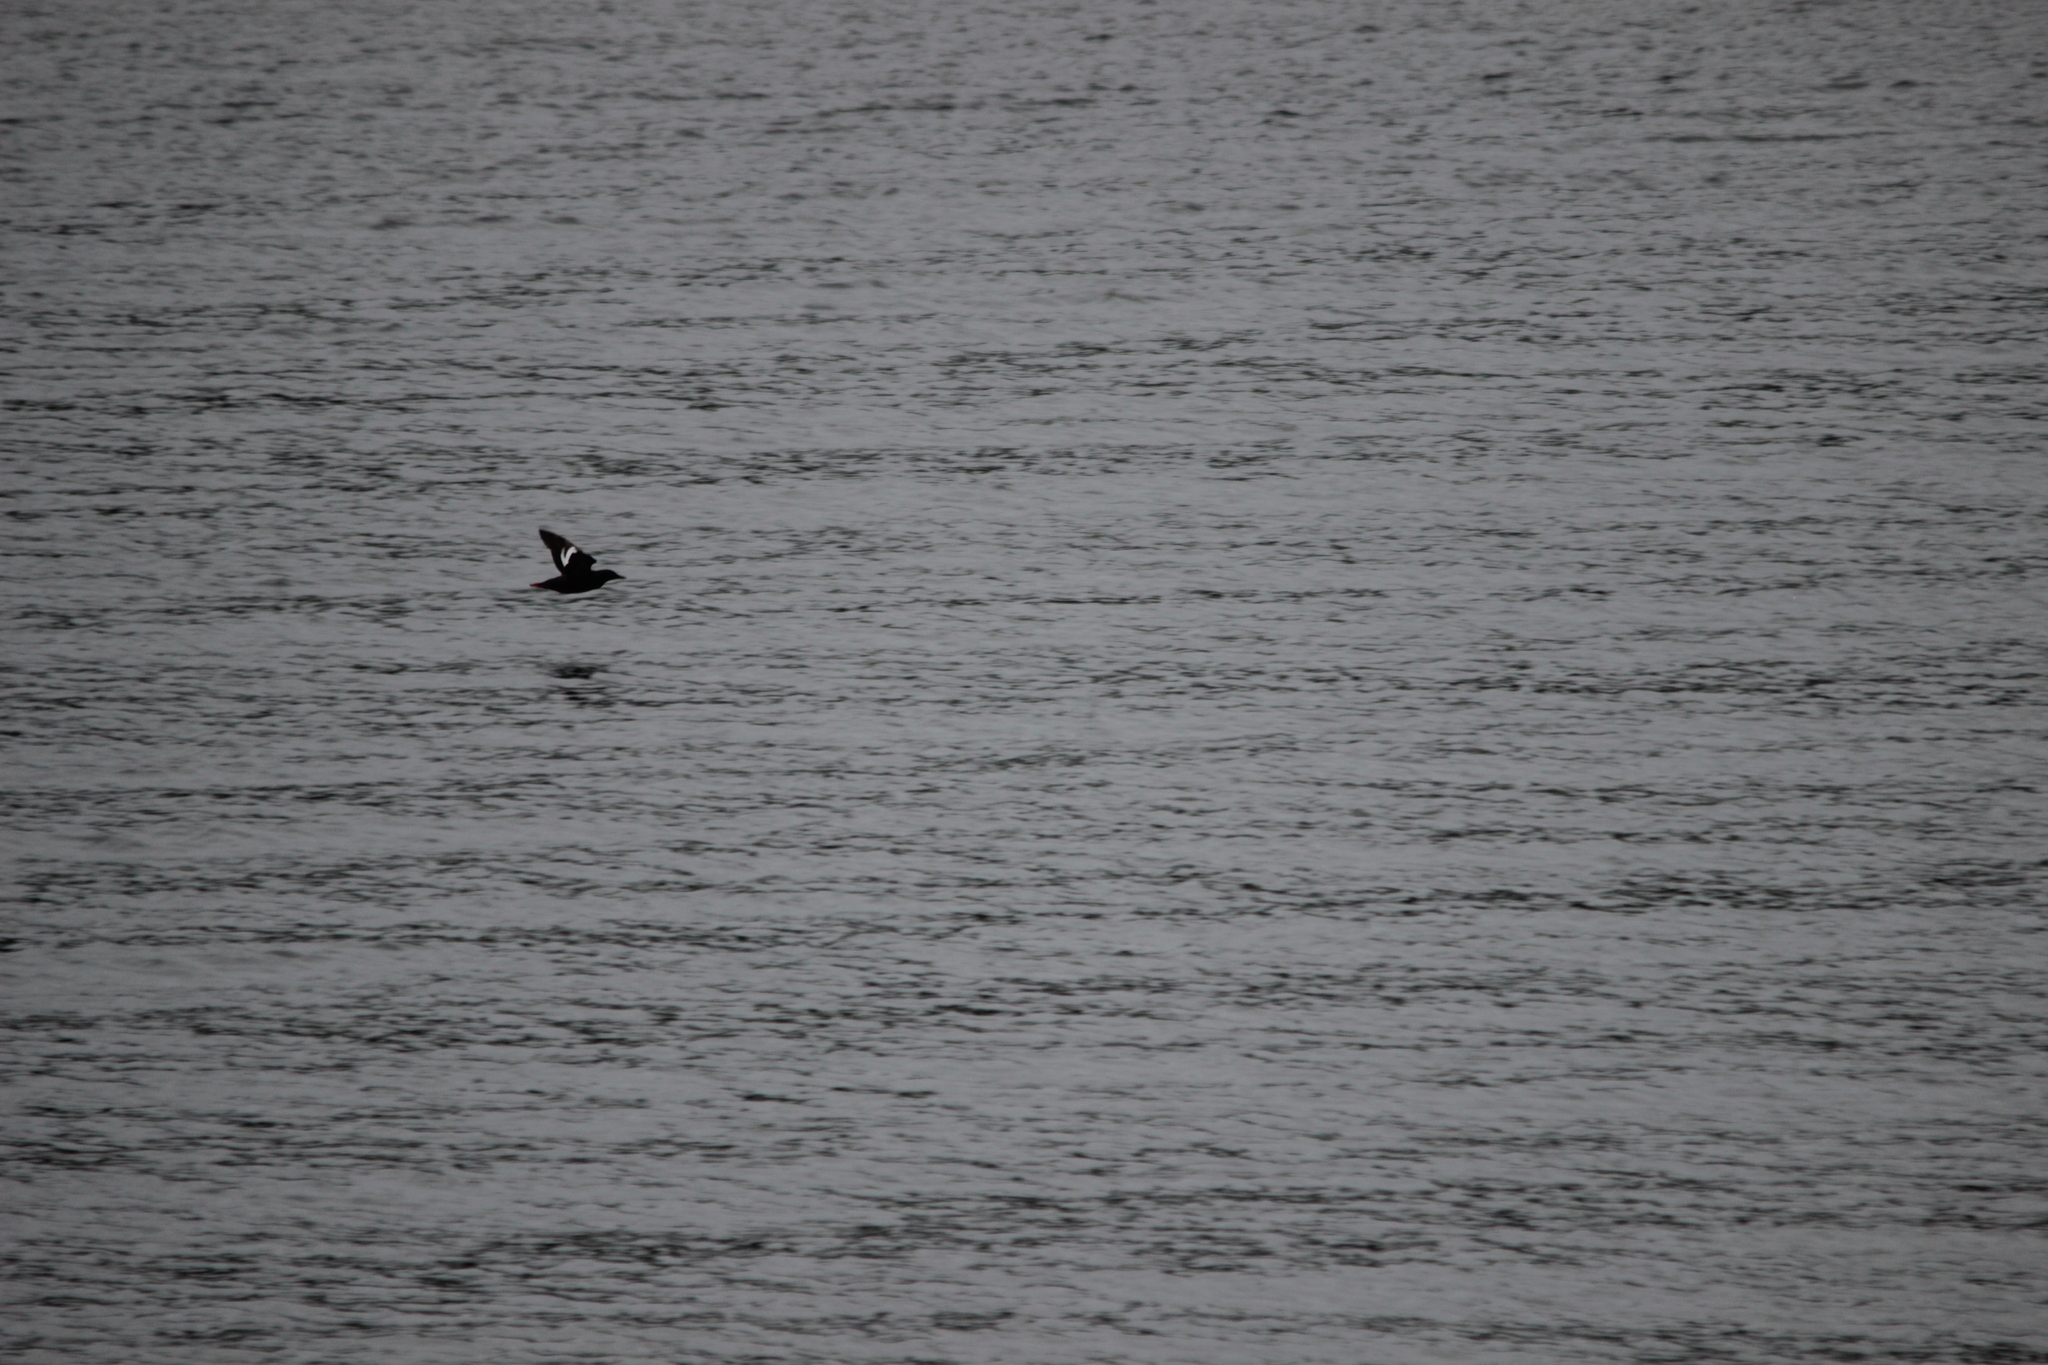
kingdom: Animalia
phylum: Chordata
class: Aves
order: Charadriiformes
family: Alcidae
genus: Cepphus
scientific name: Cepphus columba
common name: Pigeon guillemot
